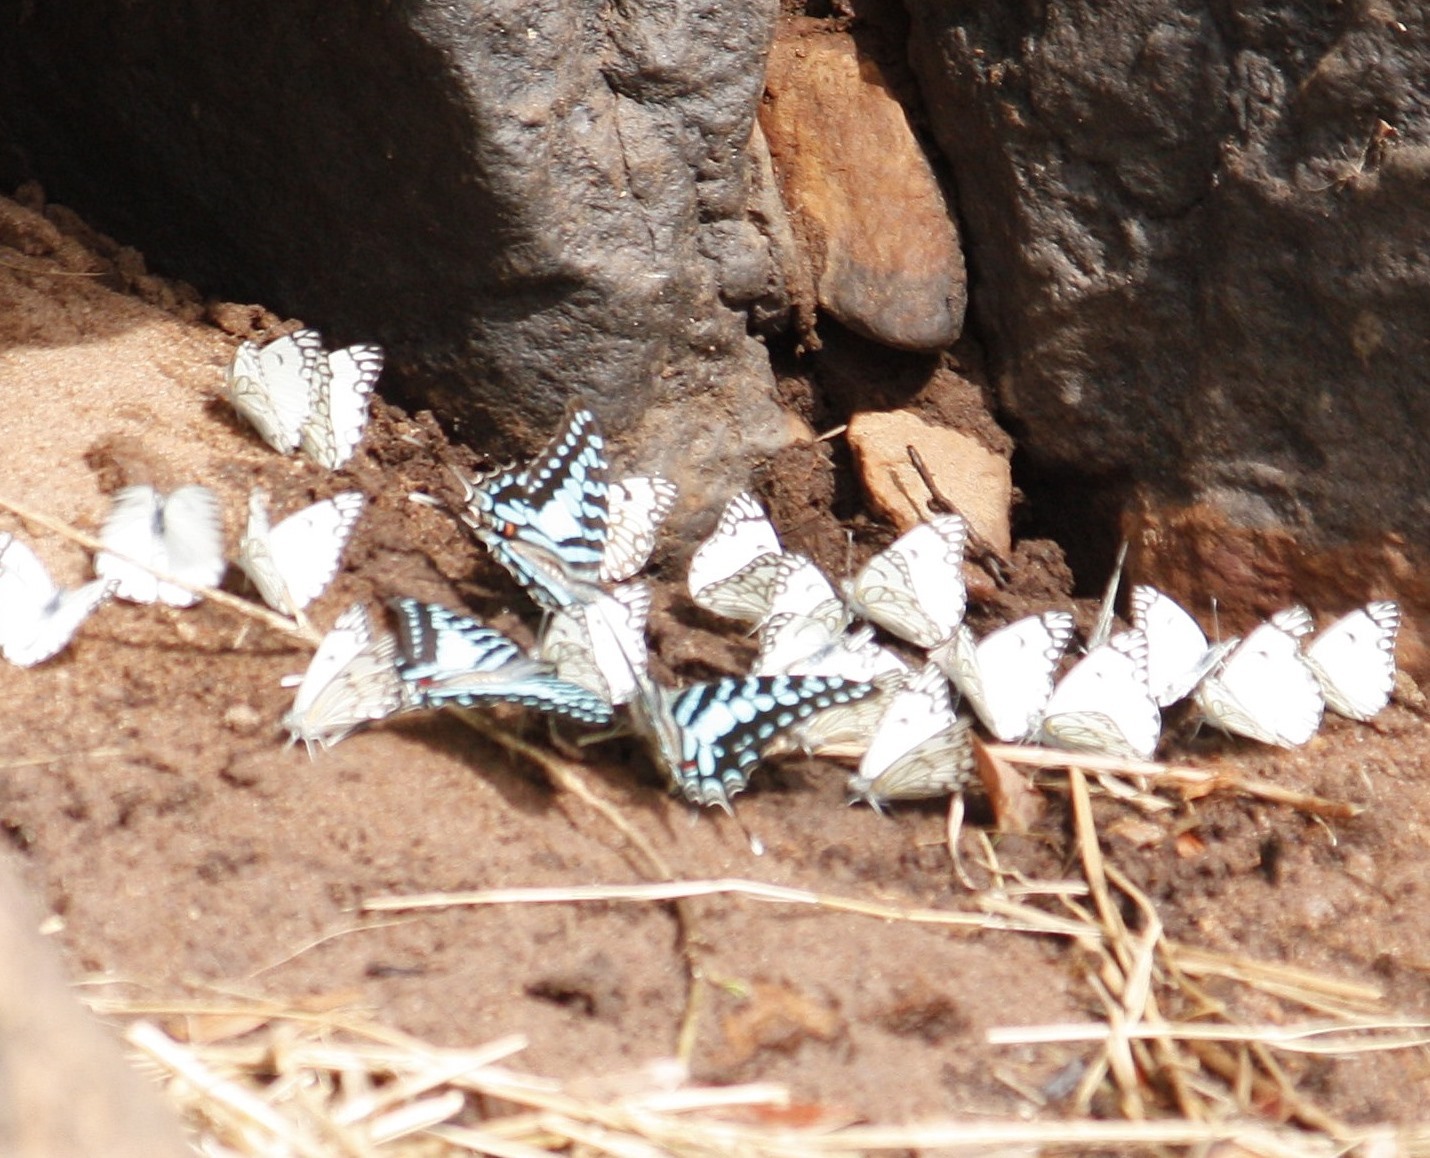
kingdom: Animalia
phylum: Arthropoda
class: Insecta
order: Lepidoptera
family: Pieridae
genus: Belenois
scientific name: Belenois aurota
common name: Brown-veined white
